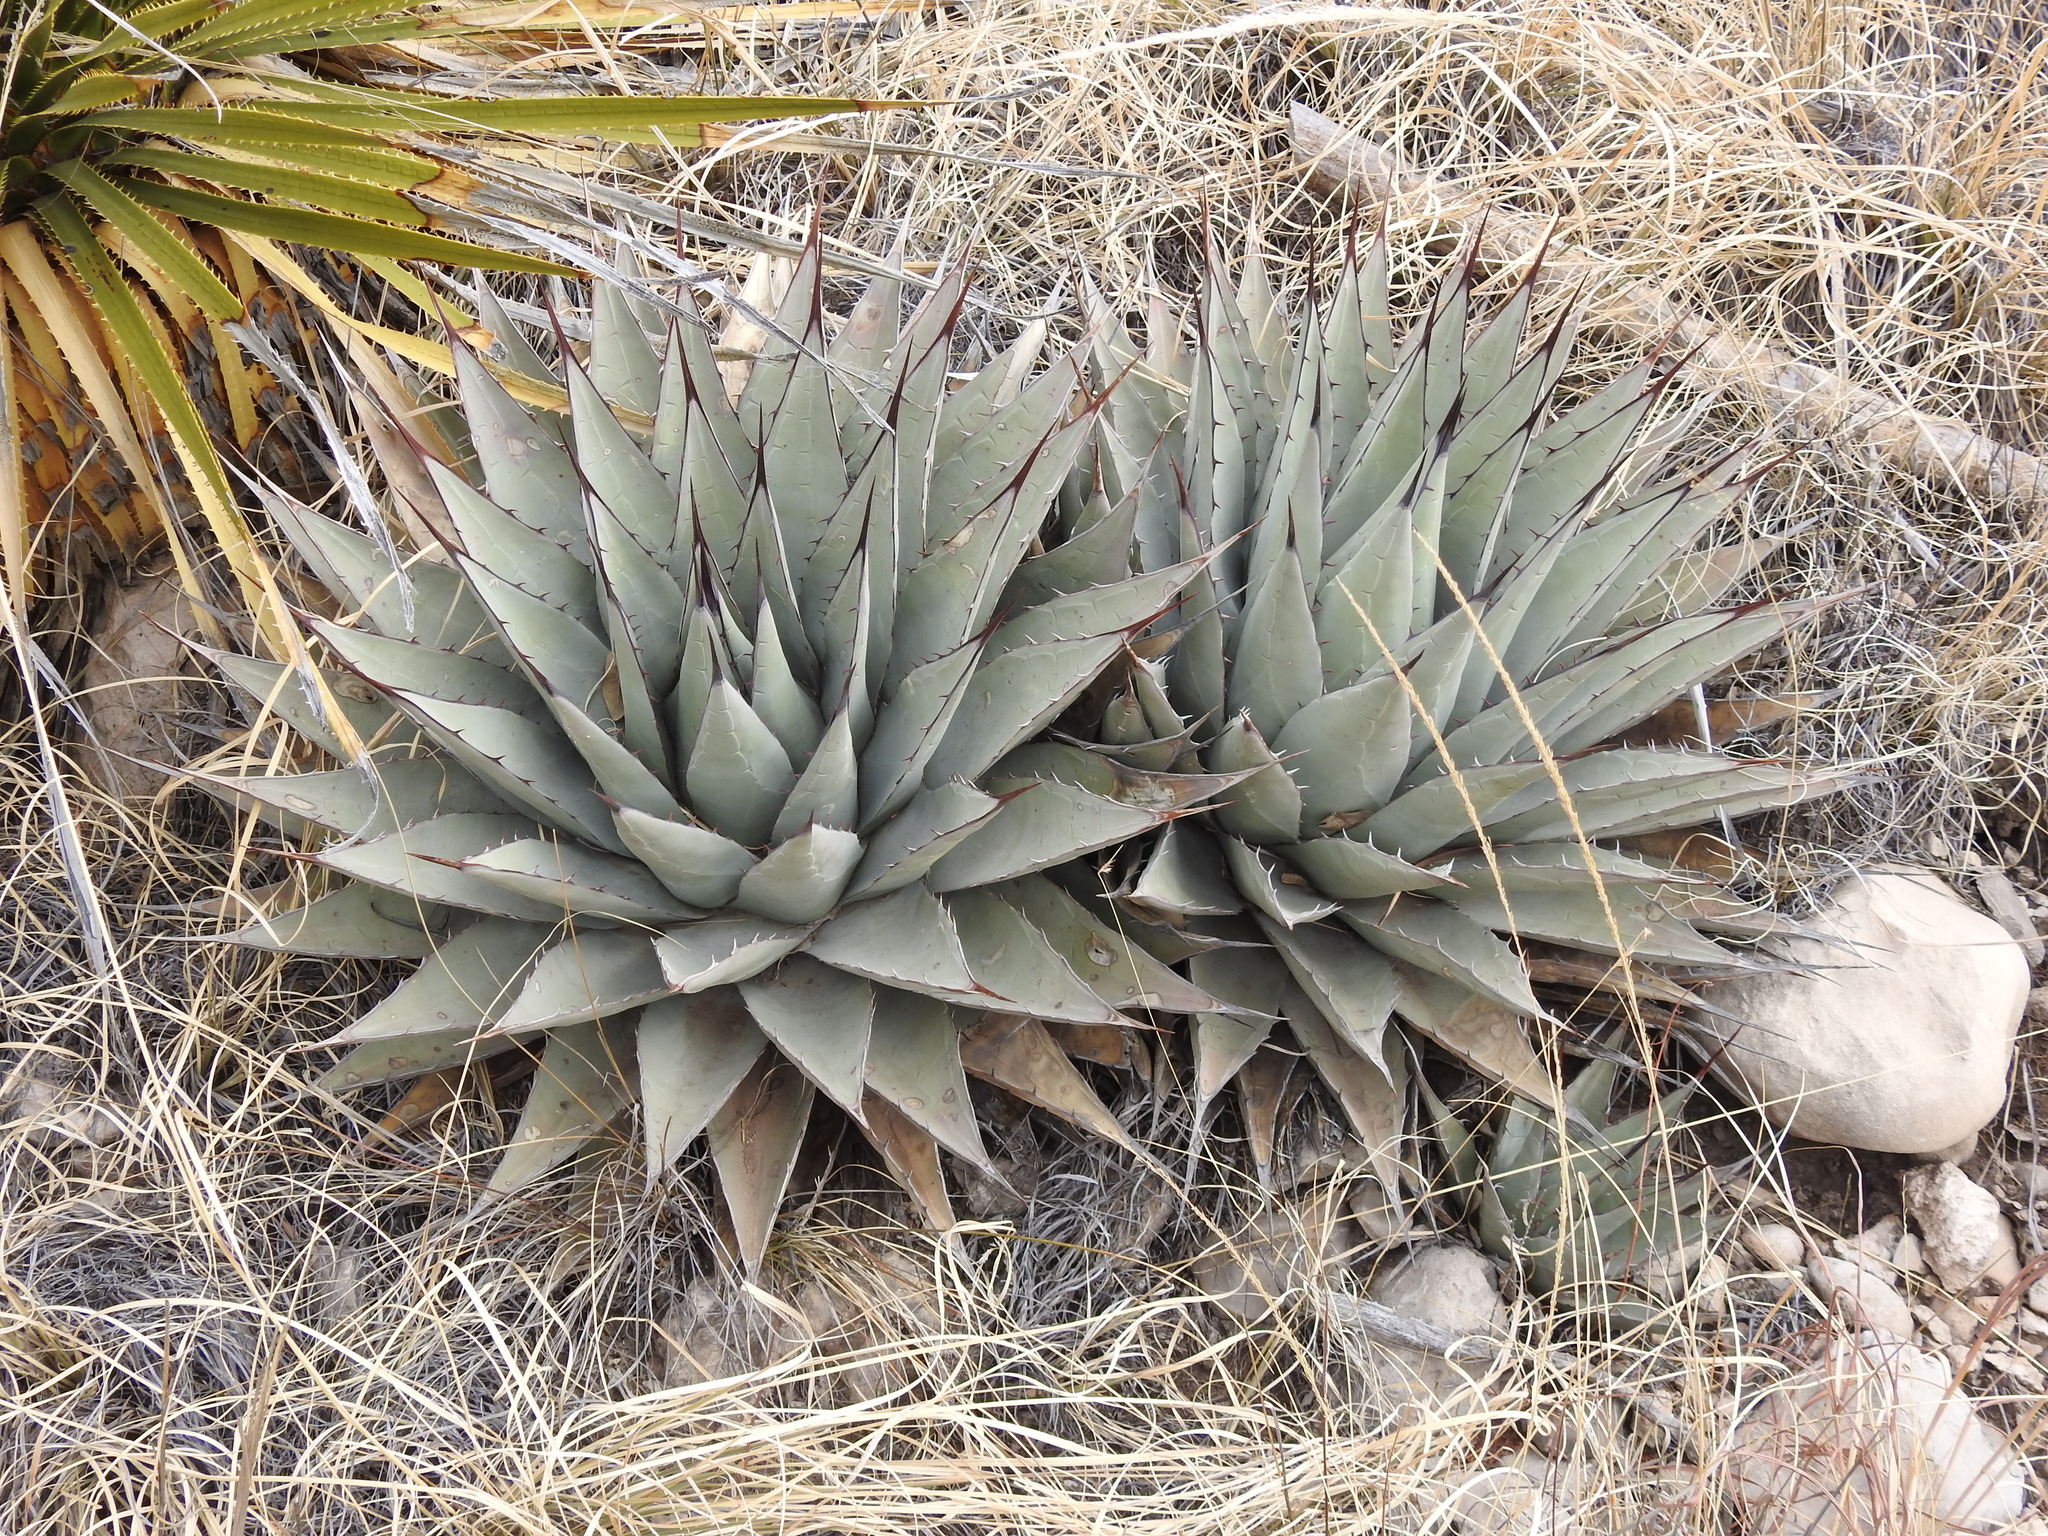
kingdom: Plantae
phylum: Tracheophyta
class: Liliopsida
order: Asparagales
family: Asparagaceae
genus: Agave
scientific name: Agave parryi
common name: Parry's agave
